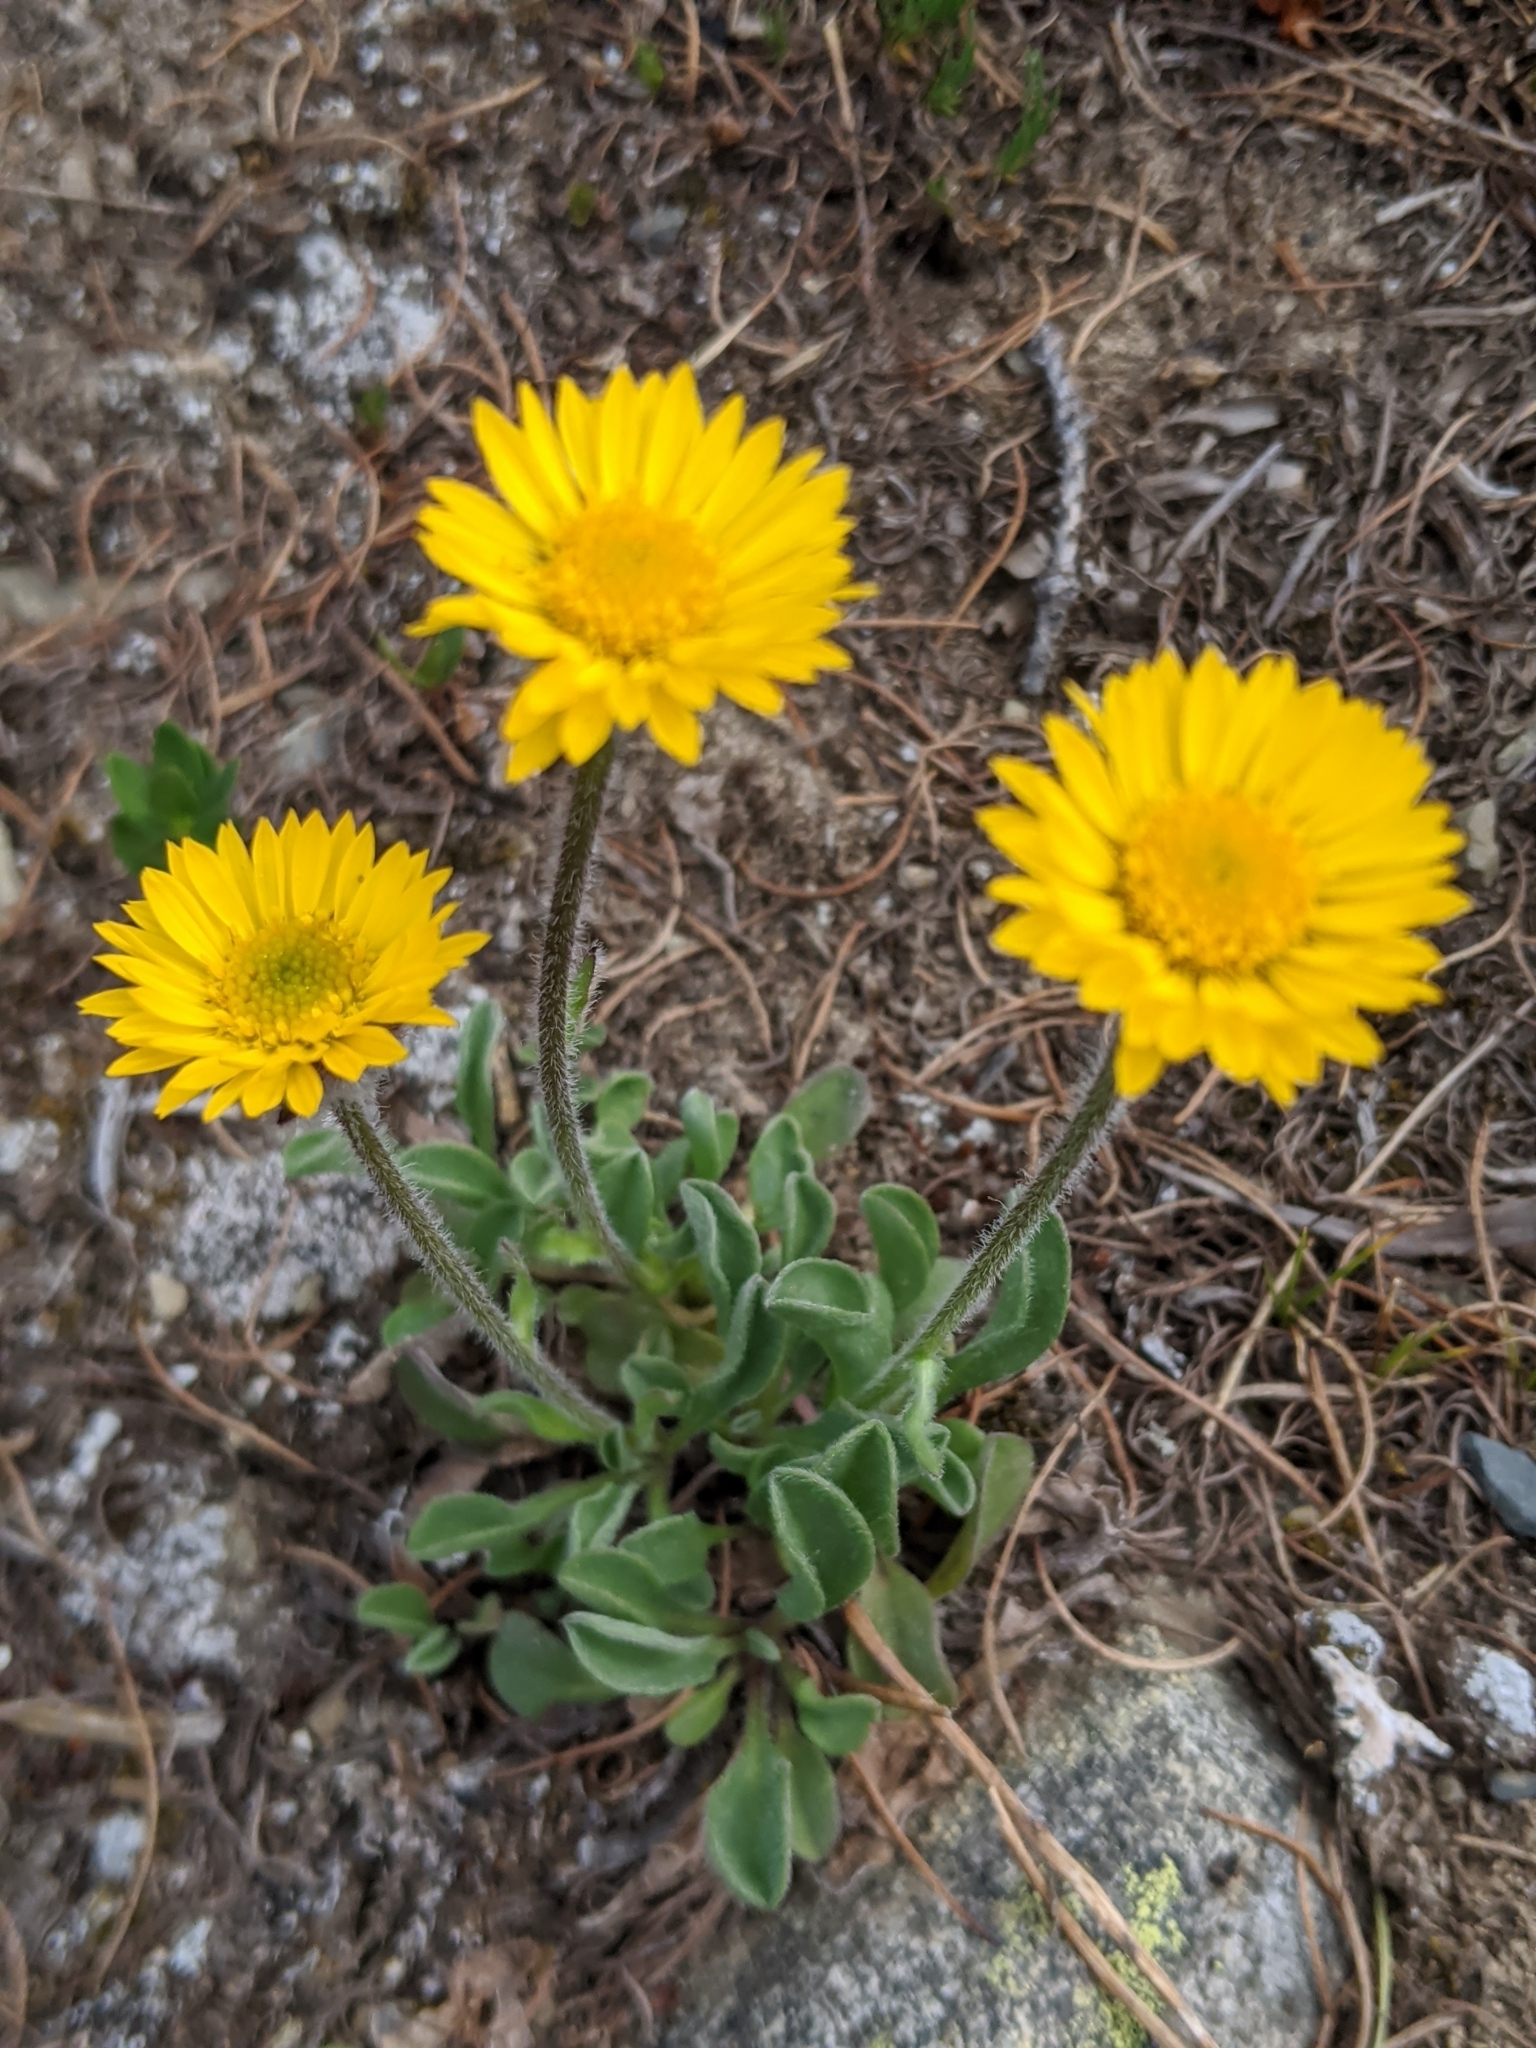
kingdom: Plantae
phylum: Tracheophyta
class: Magnoliopsida
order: Asterales
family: Asteraceae
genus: Erigeron
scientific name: Erigeron aureus
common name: Alpine yellow fleabane
